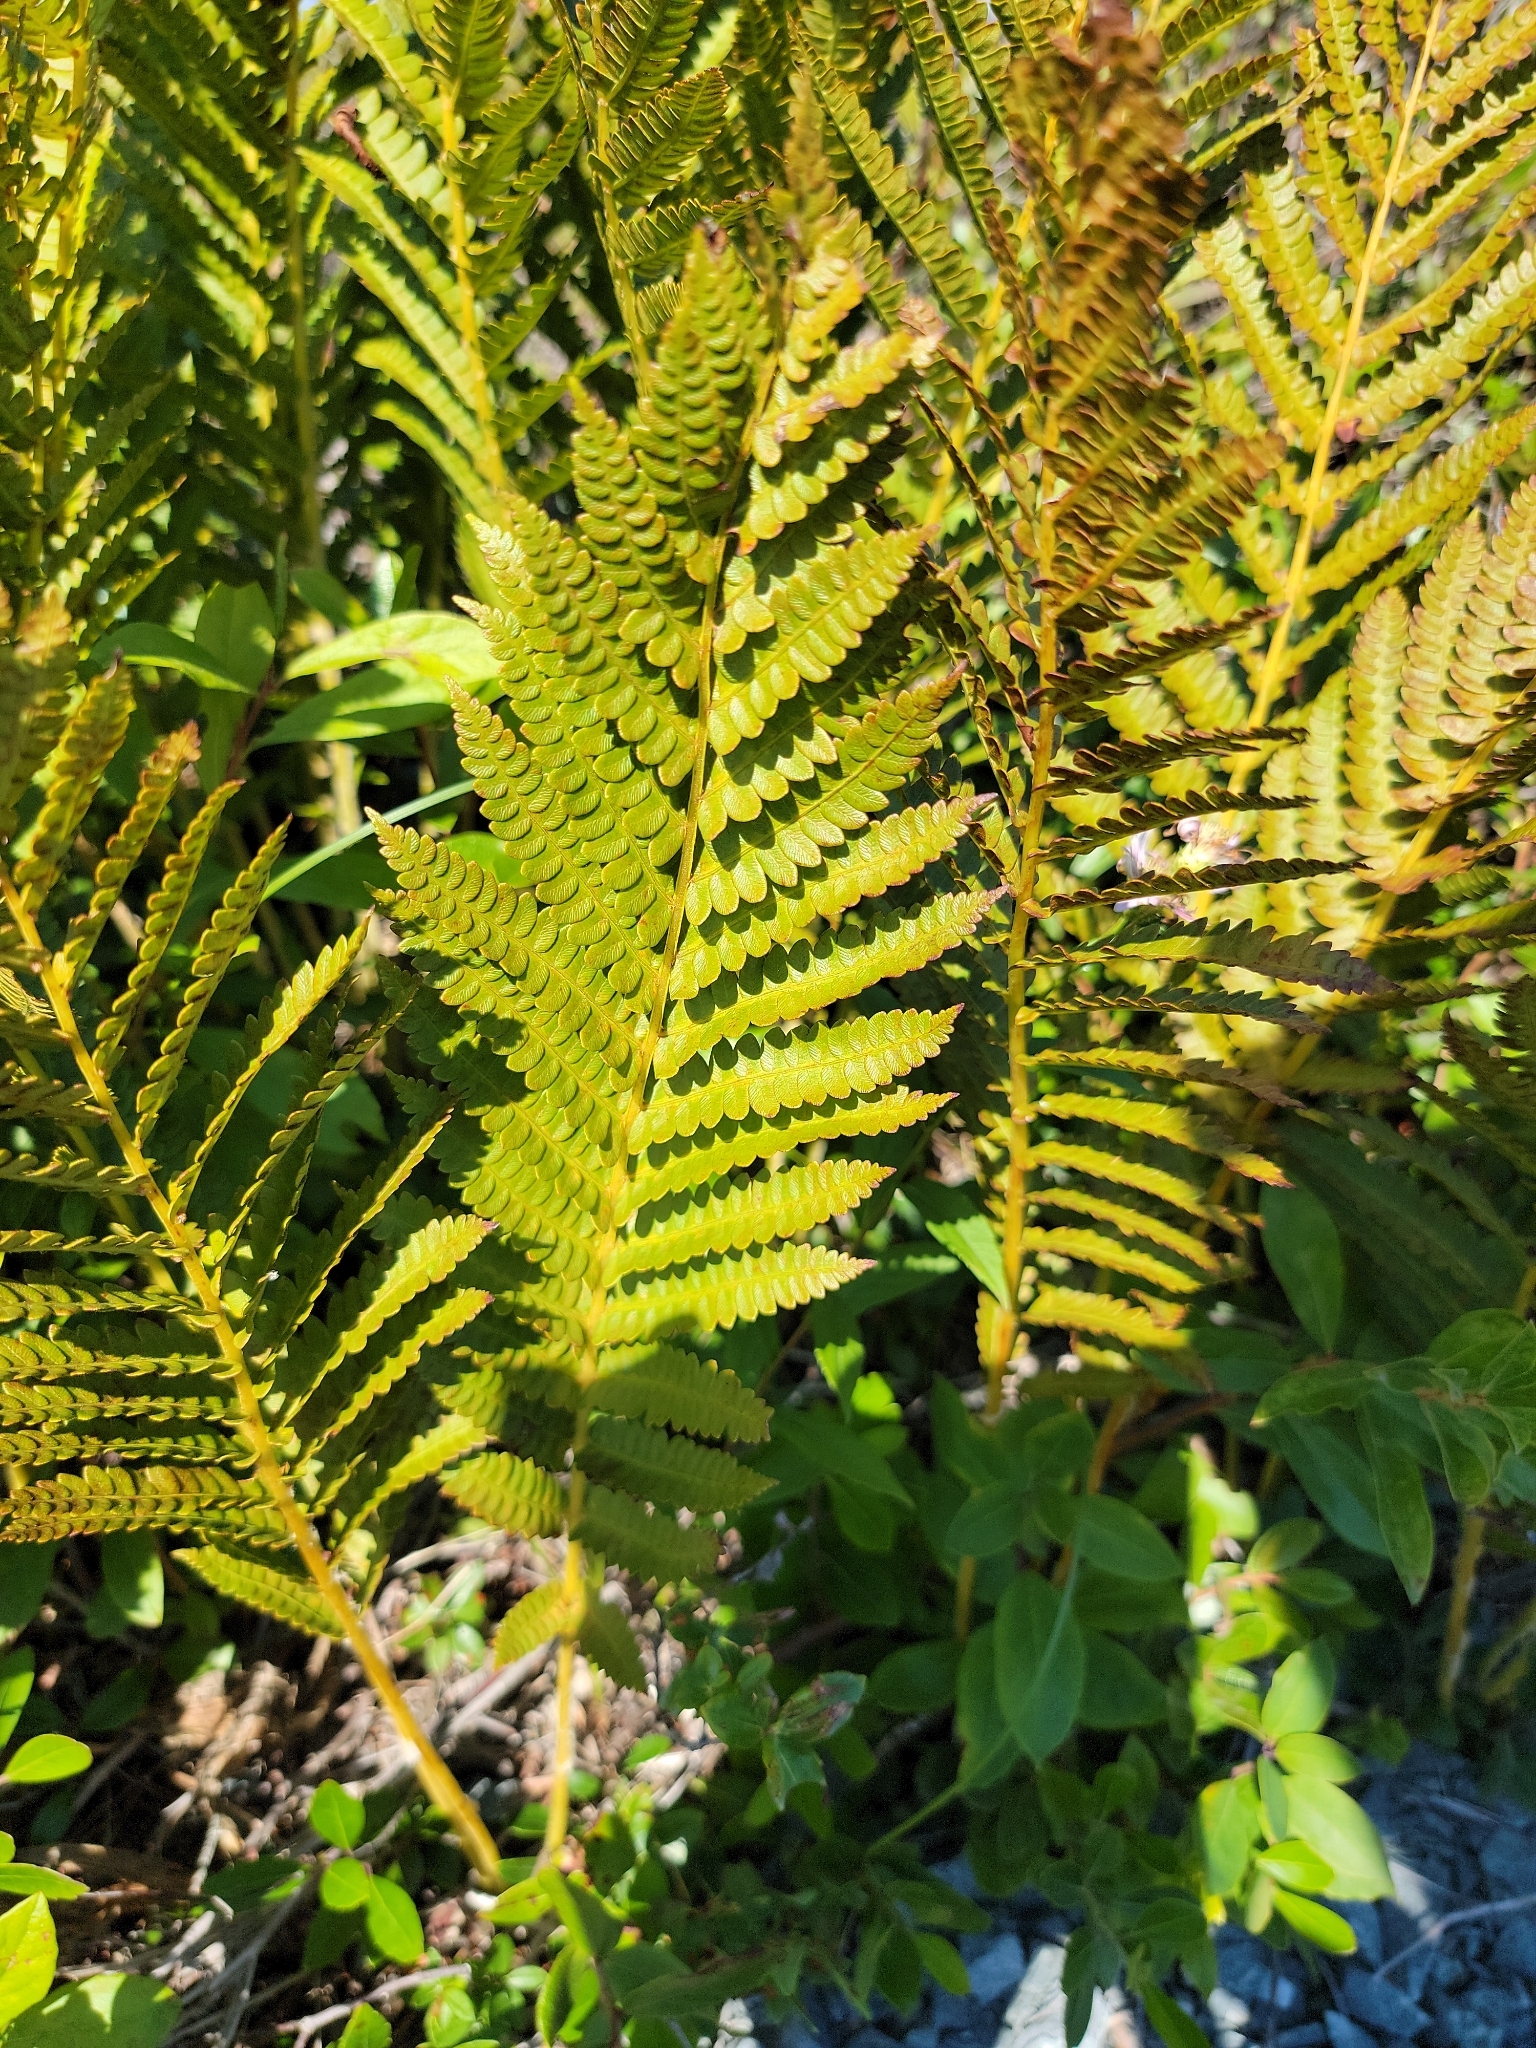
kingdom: Plantae
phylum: Tracheophyta
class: Polypodiopsida
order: Osmundales
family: Osmundaceae
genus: Osmundastrum
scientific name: Osmundastrum cinnamomeum
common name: Cinnamon fern
